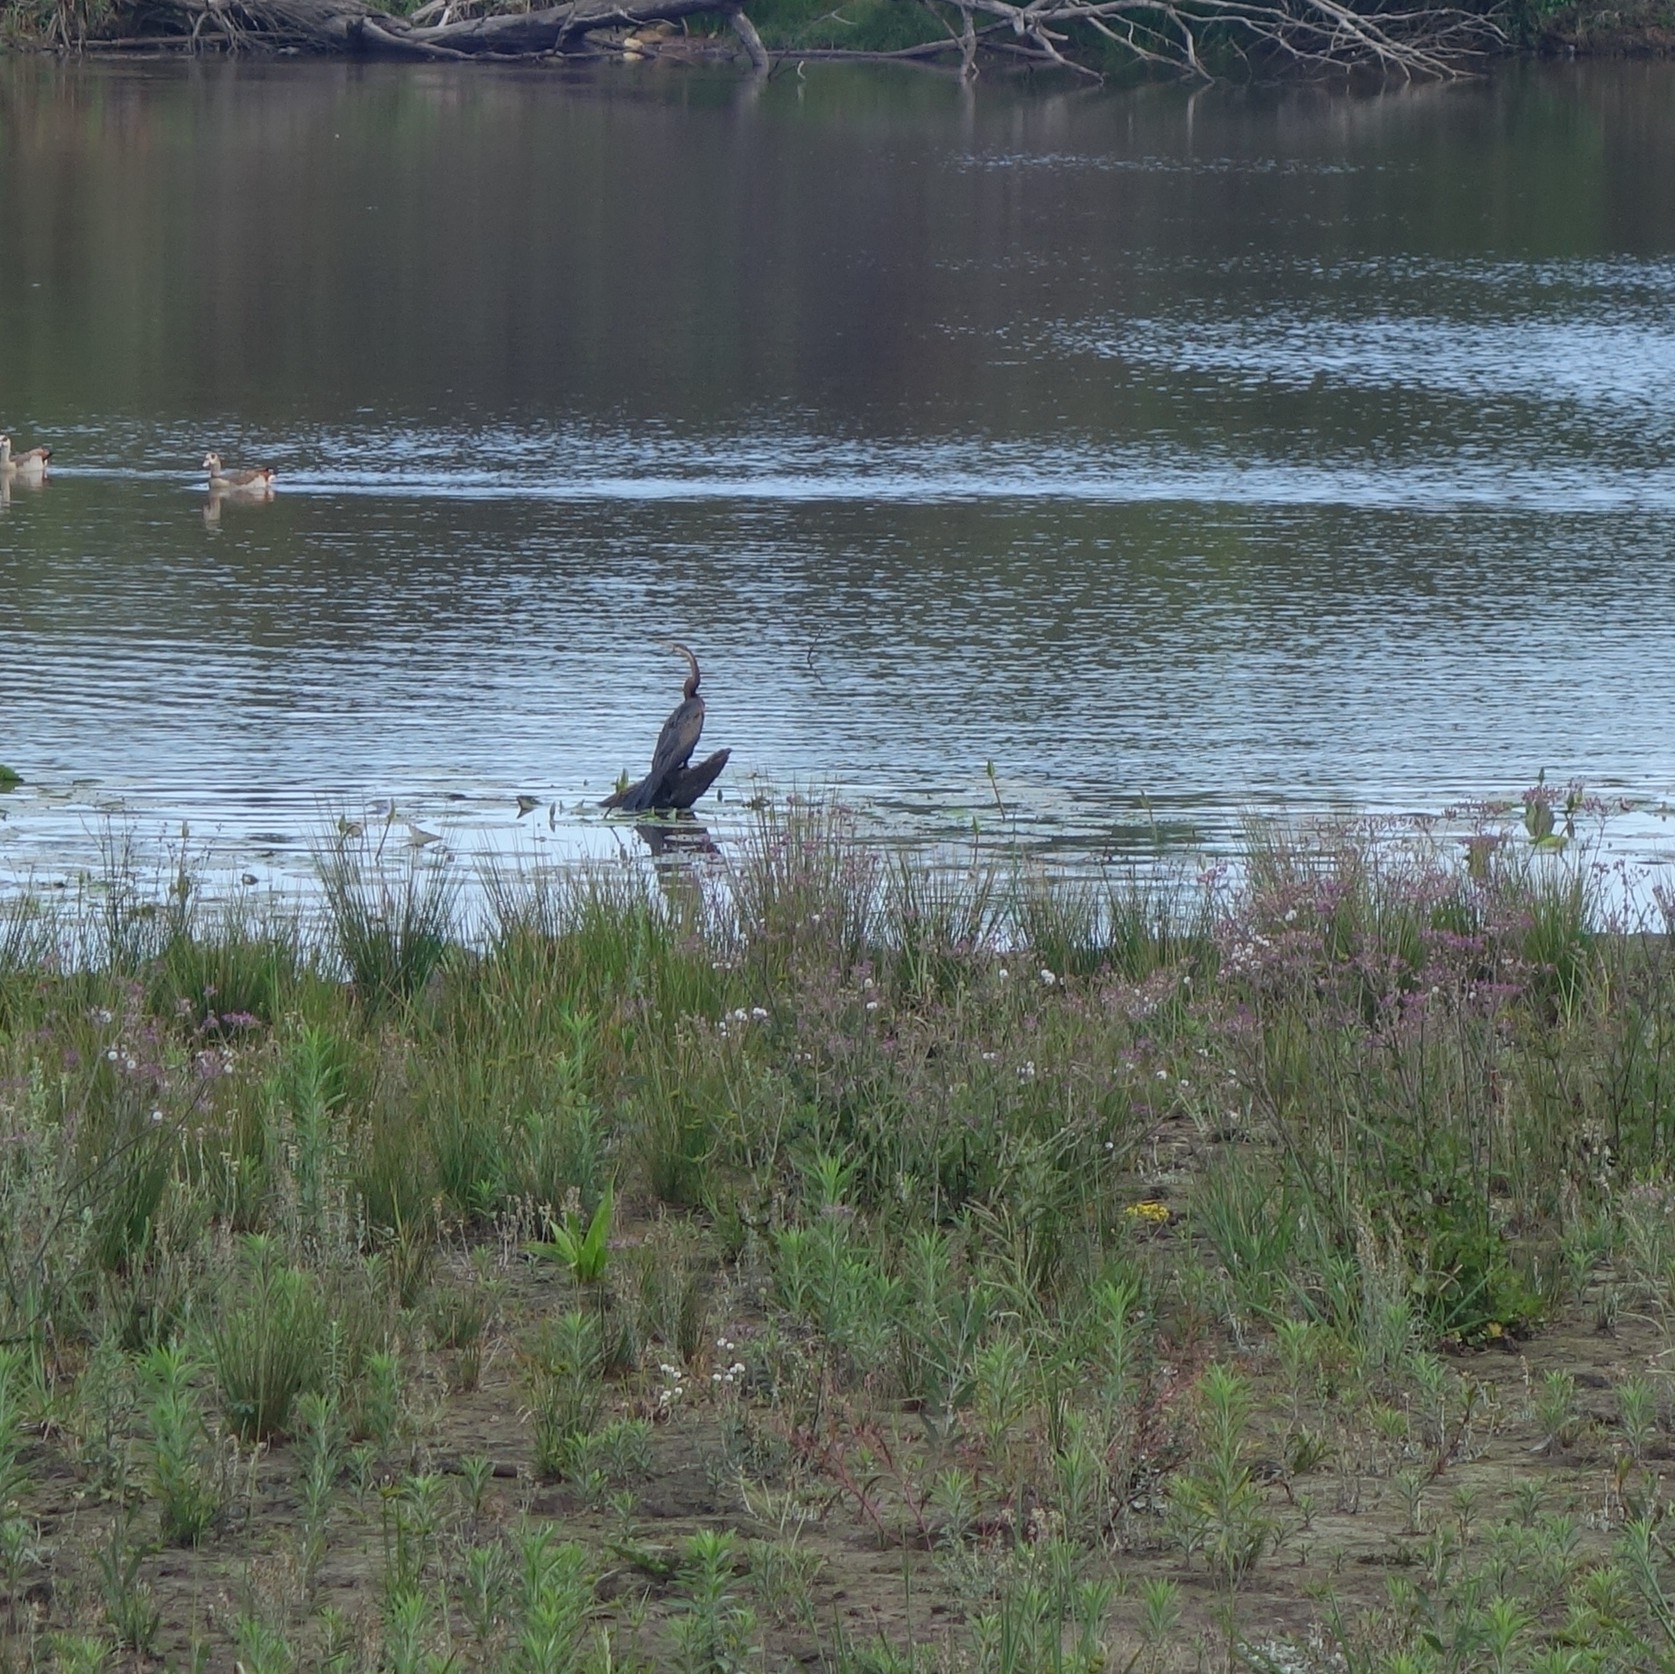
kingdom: Animalia
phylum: Chordata
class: Aves
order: Suliformes
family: Anhingidae
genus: Anhinga
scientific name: Anhinga rufa
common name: African darter
